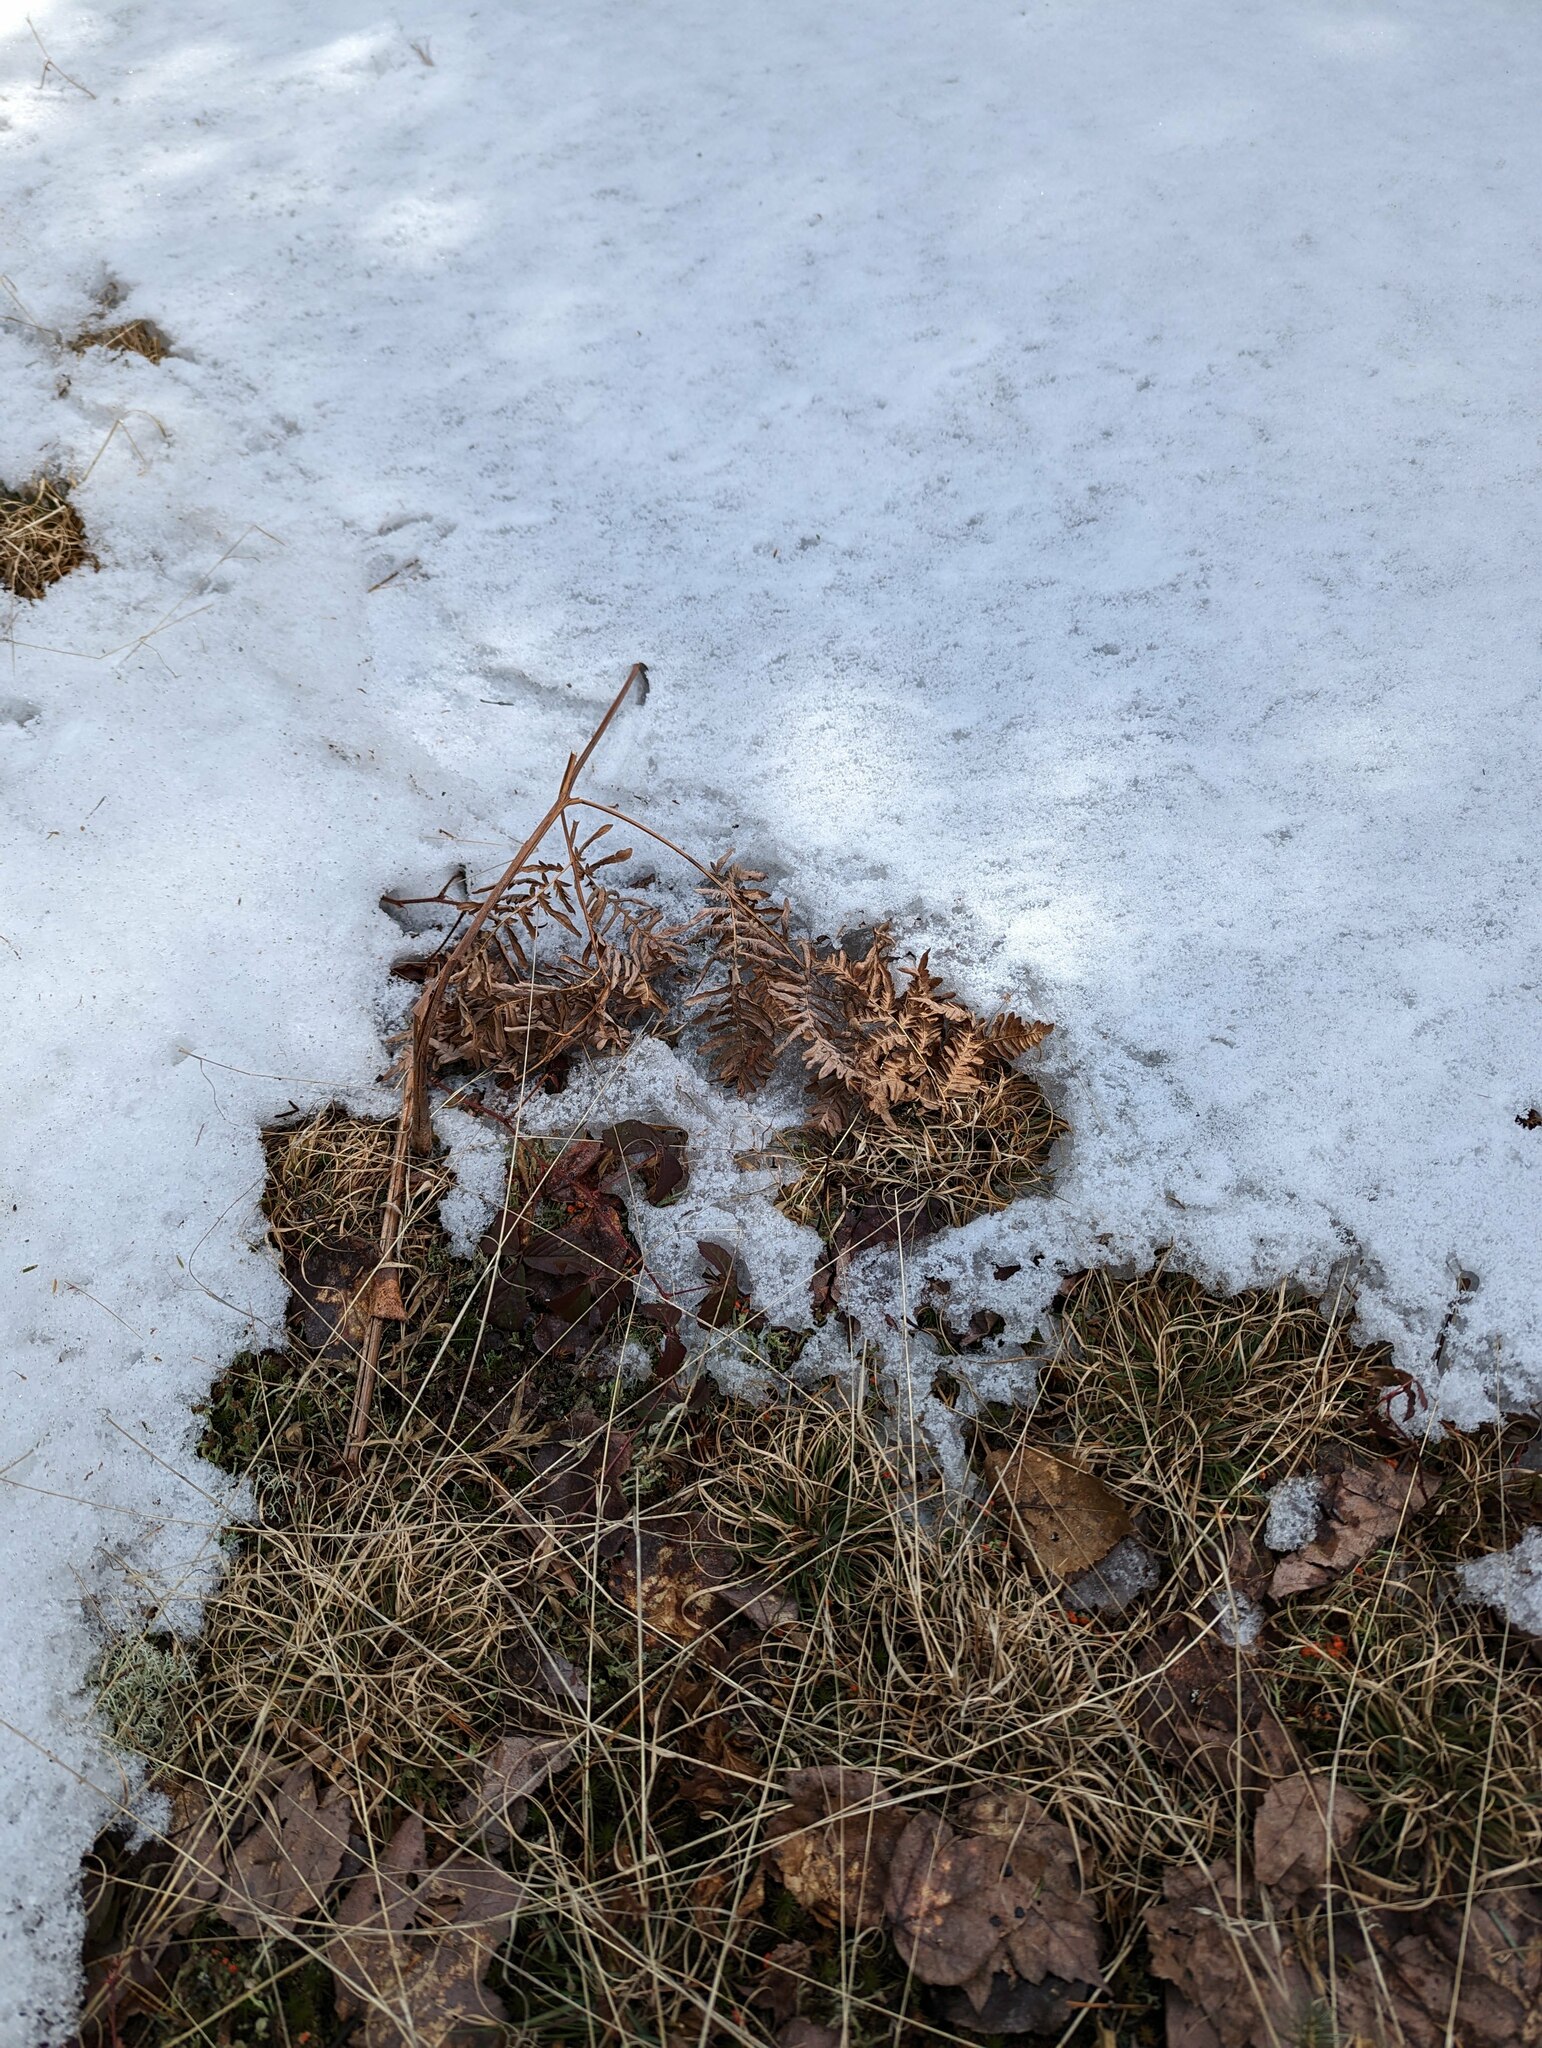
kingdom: Plantae
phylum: Tracheophyta
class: Polypodiopsida
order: Polypodiales
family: Dennstaedtiaceae
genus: Pteridium
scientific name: Pteridium aquilinum
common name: Bracken
